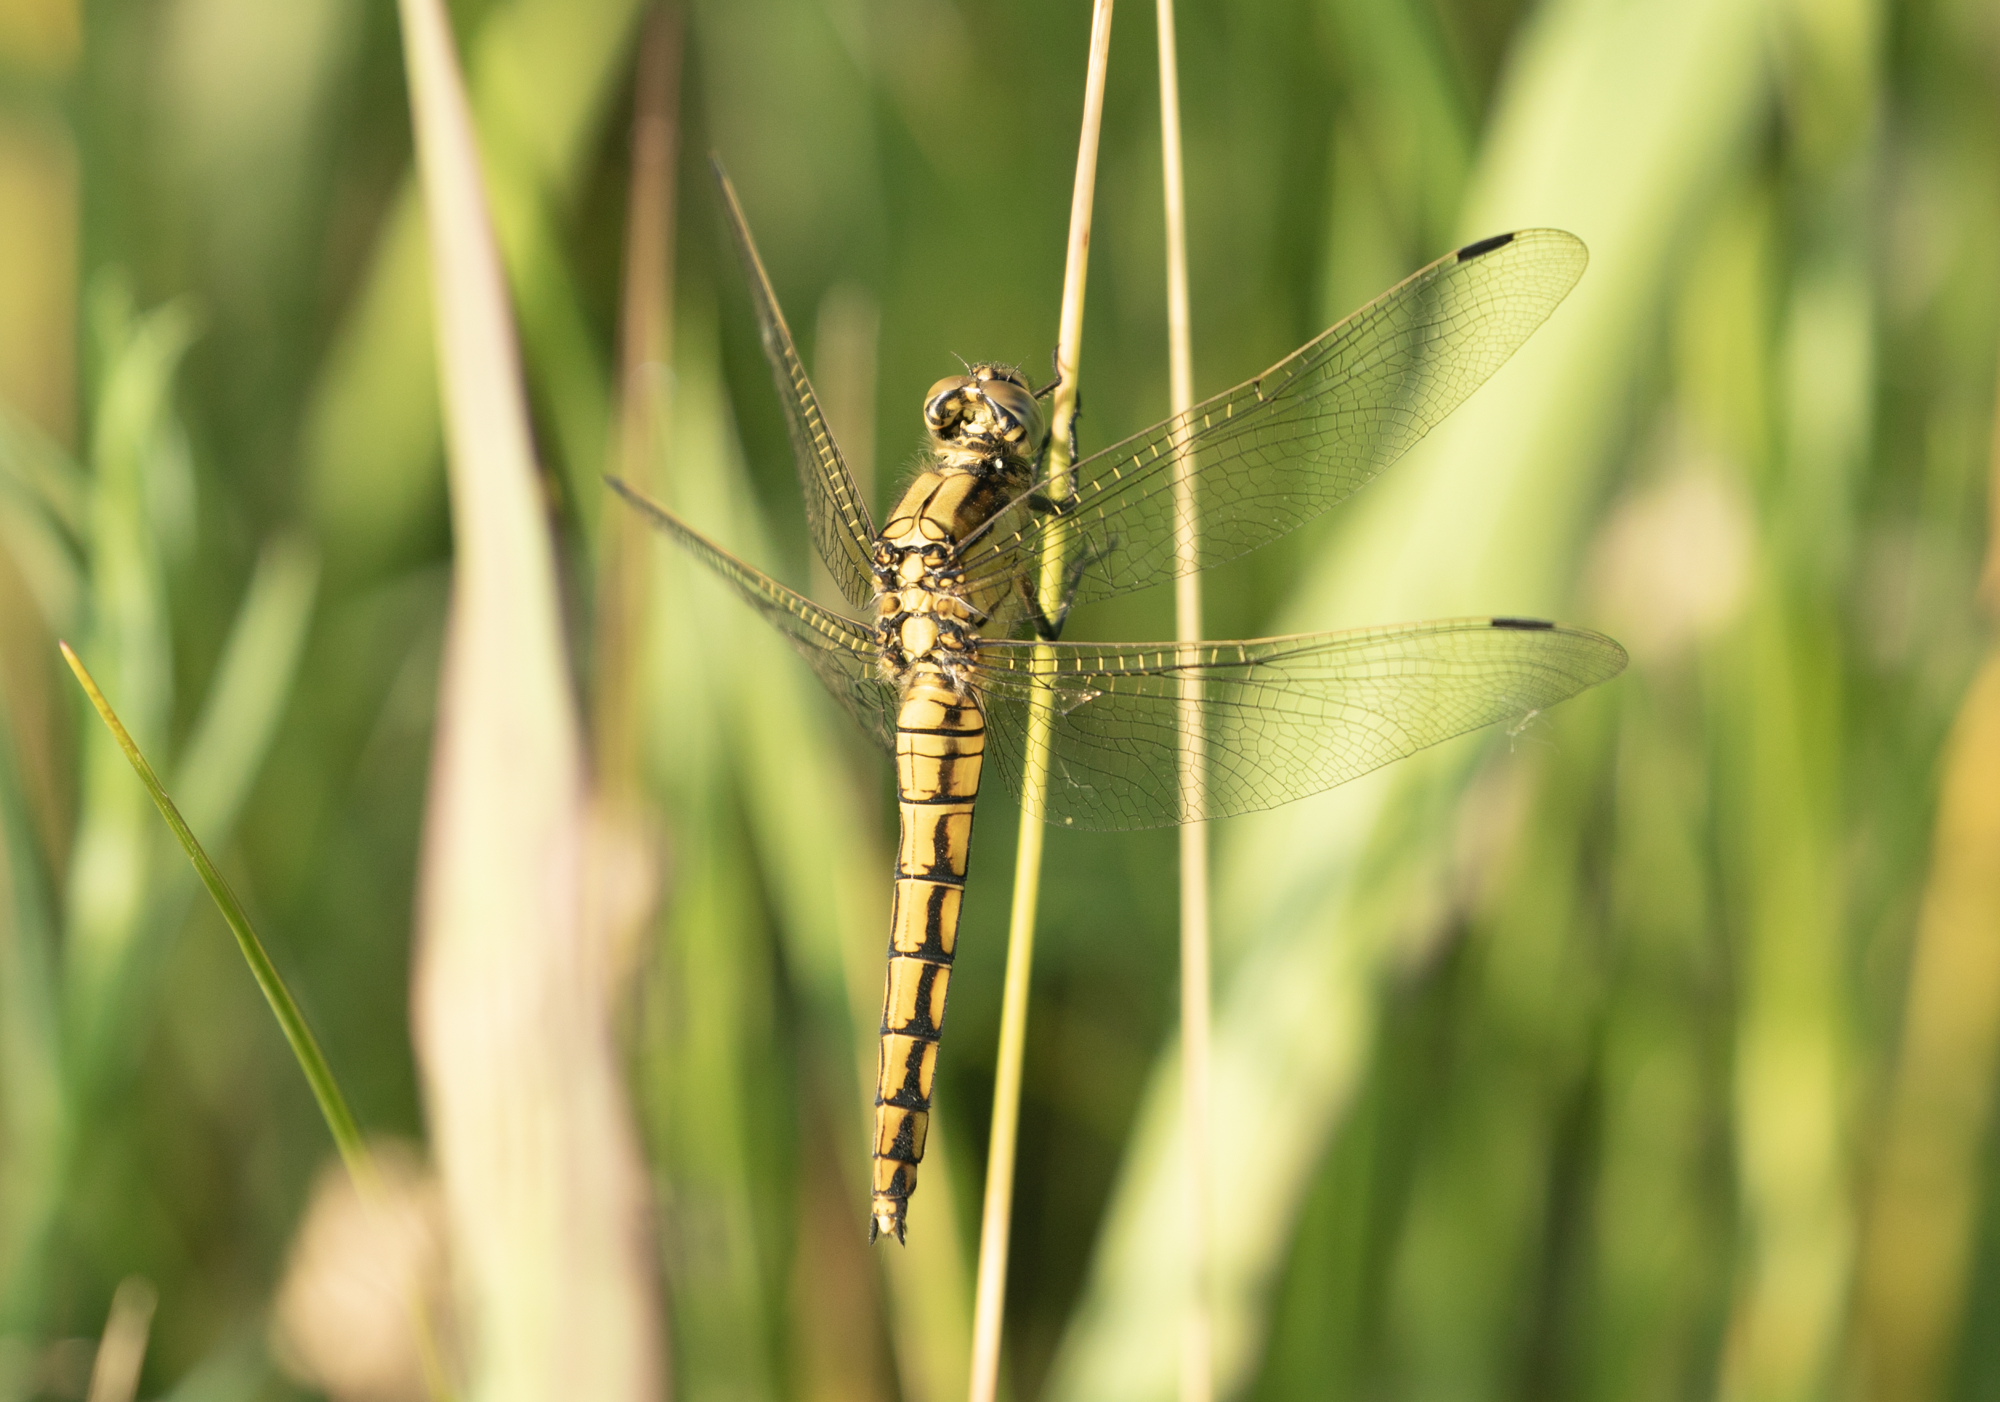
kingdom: Animalia
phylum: Arthropoda
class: Insecta
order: Odonata
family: Libellulidae
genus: Orthetrum
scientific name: Orthetrum cancellatum
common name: Black-tailed skimmer
